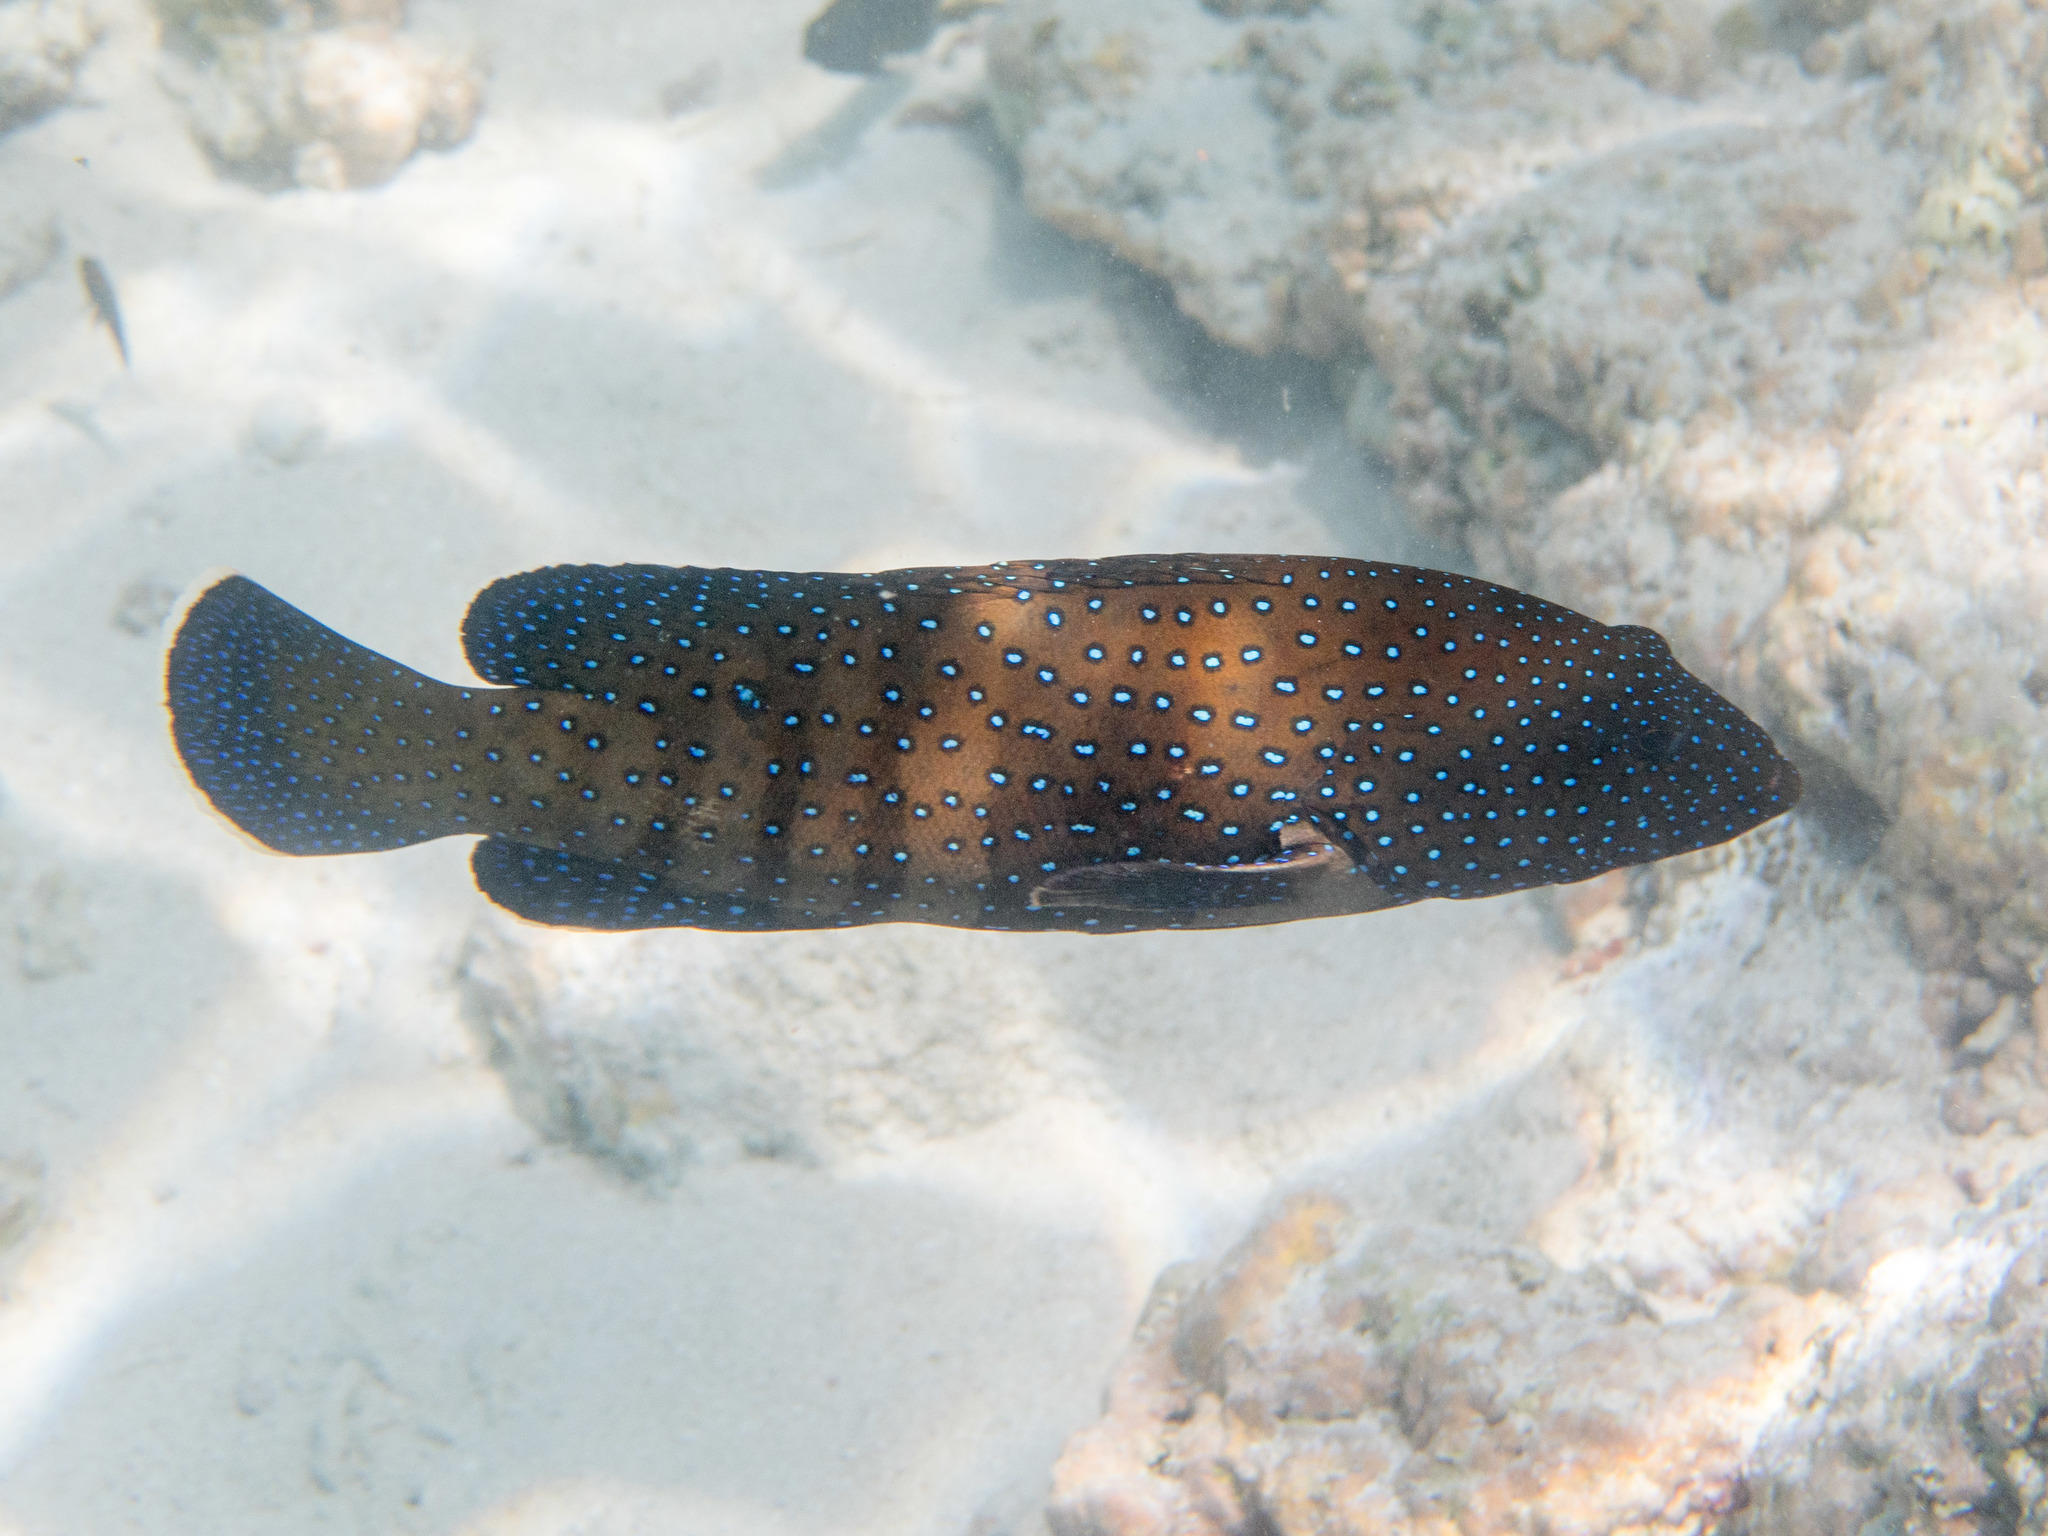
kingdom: Animalia
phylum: Chordata
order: Perciformes
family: Serranidae
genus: Cephalopholis
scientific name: Cephalopholis argus
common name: Peacock grouper
